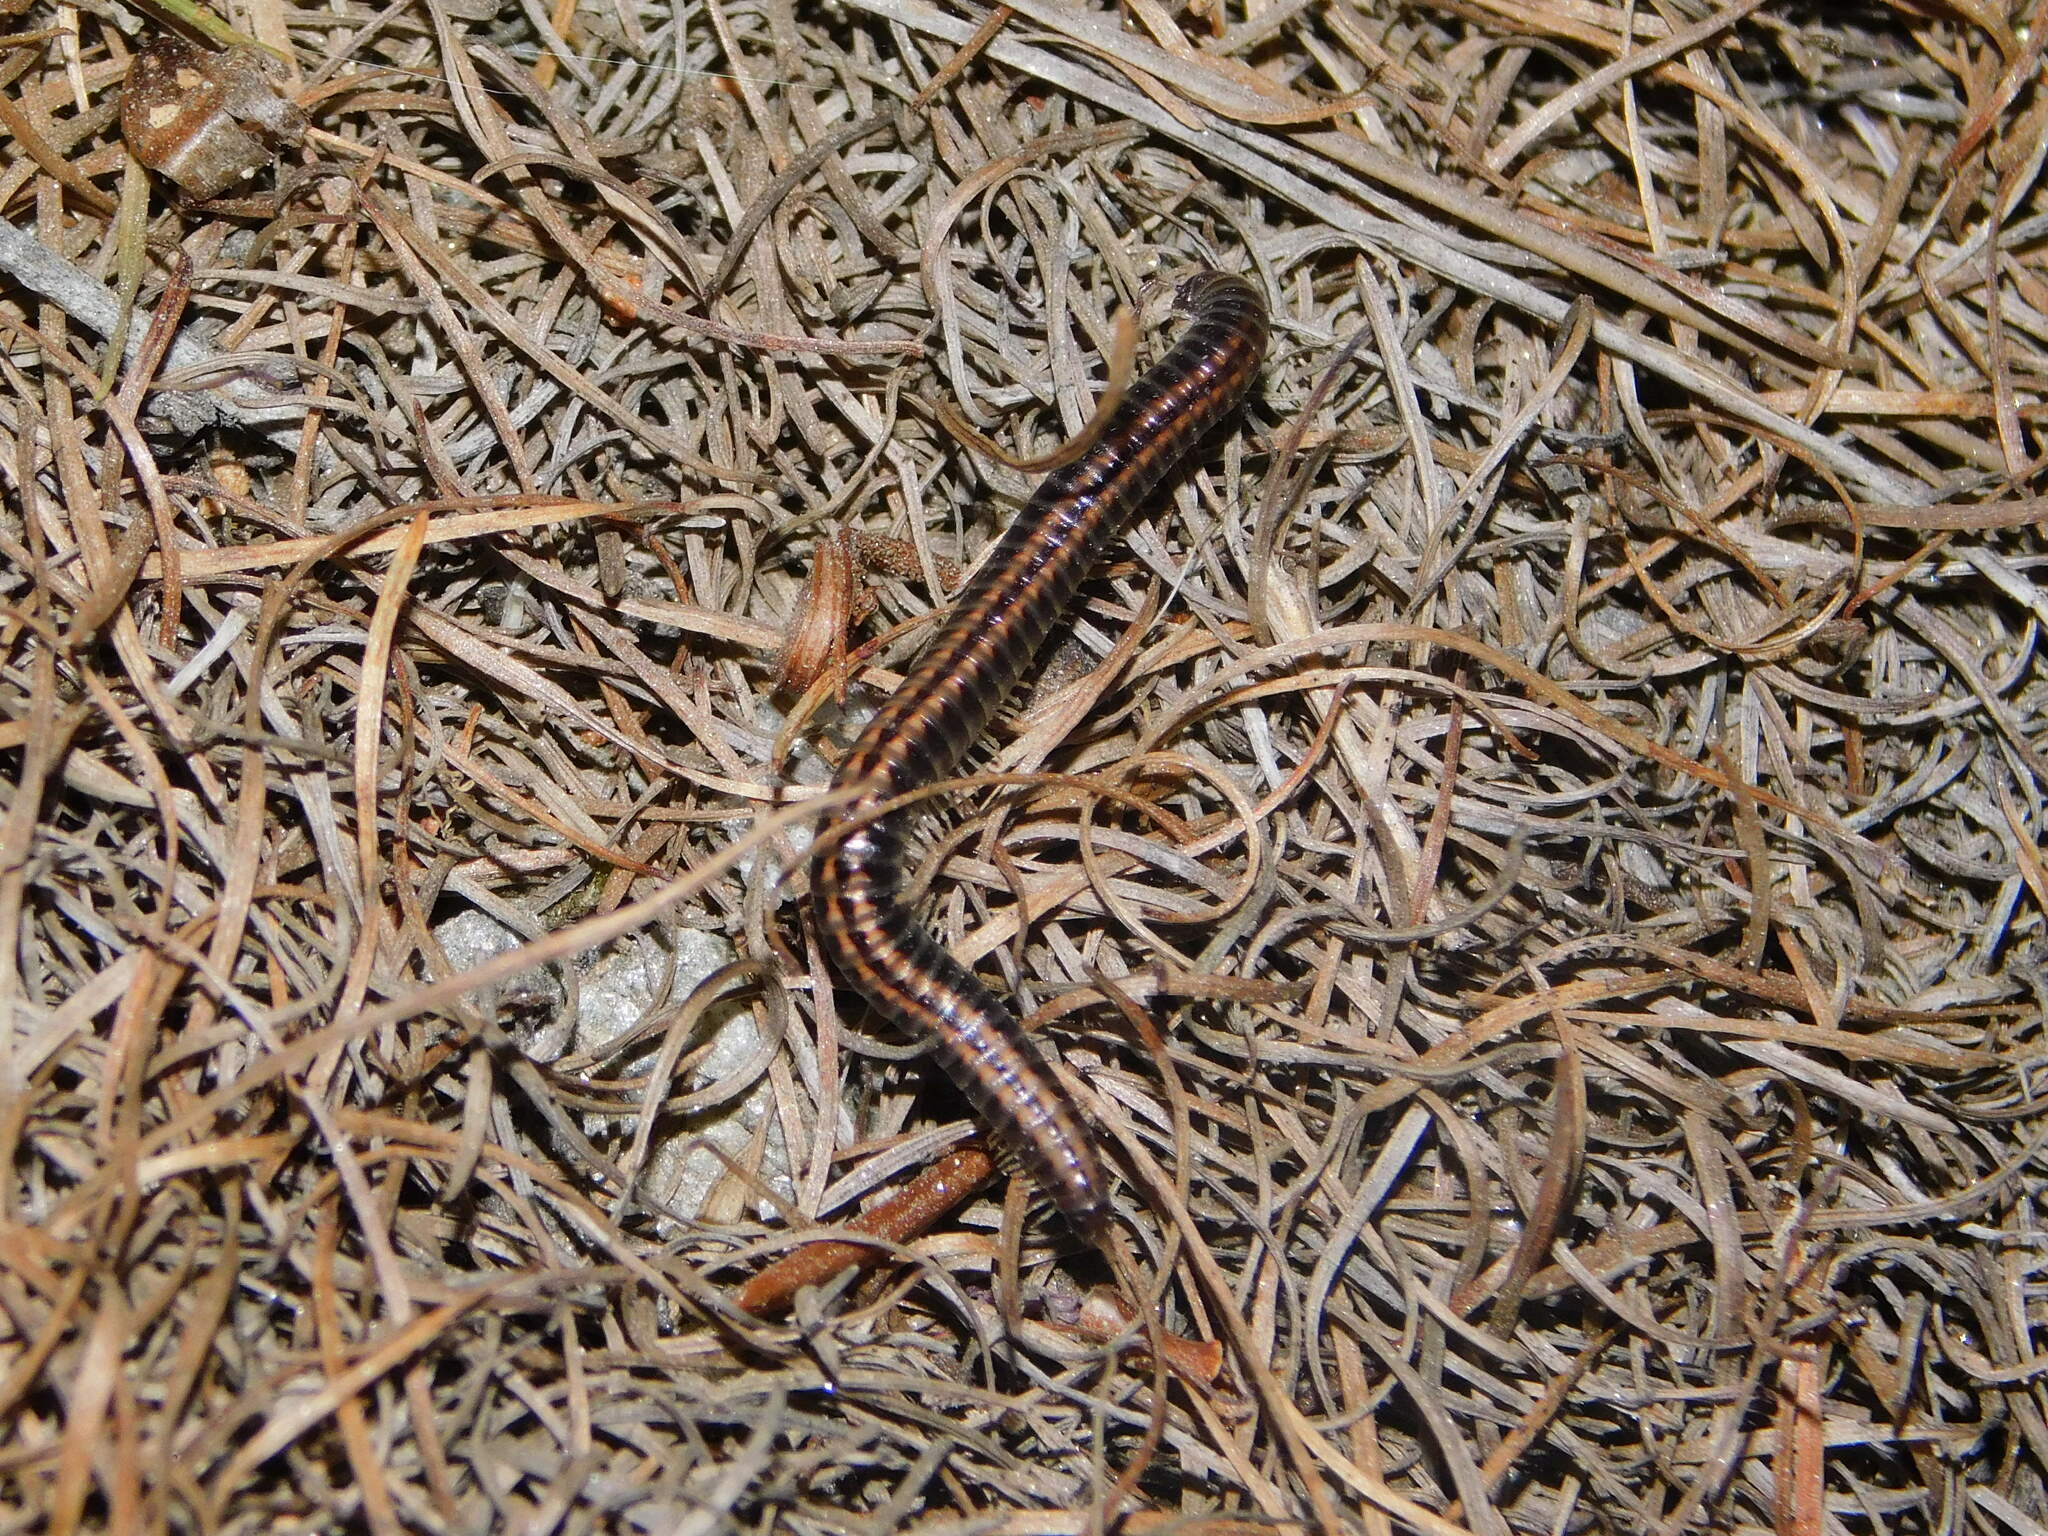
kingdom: Animalia
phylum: Arthropoda
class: Diplopoda
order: Julida
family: Julidae
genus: Ommatoiulus
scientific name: Ommatoiulus sabulosus
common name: Striped millipede
